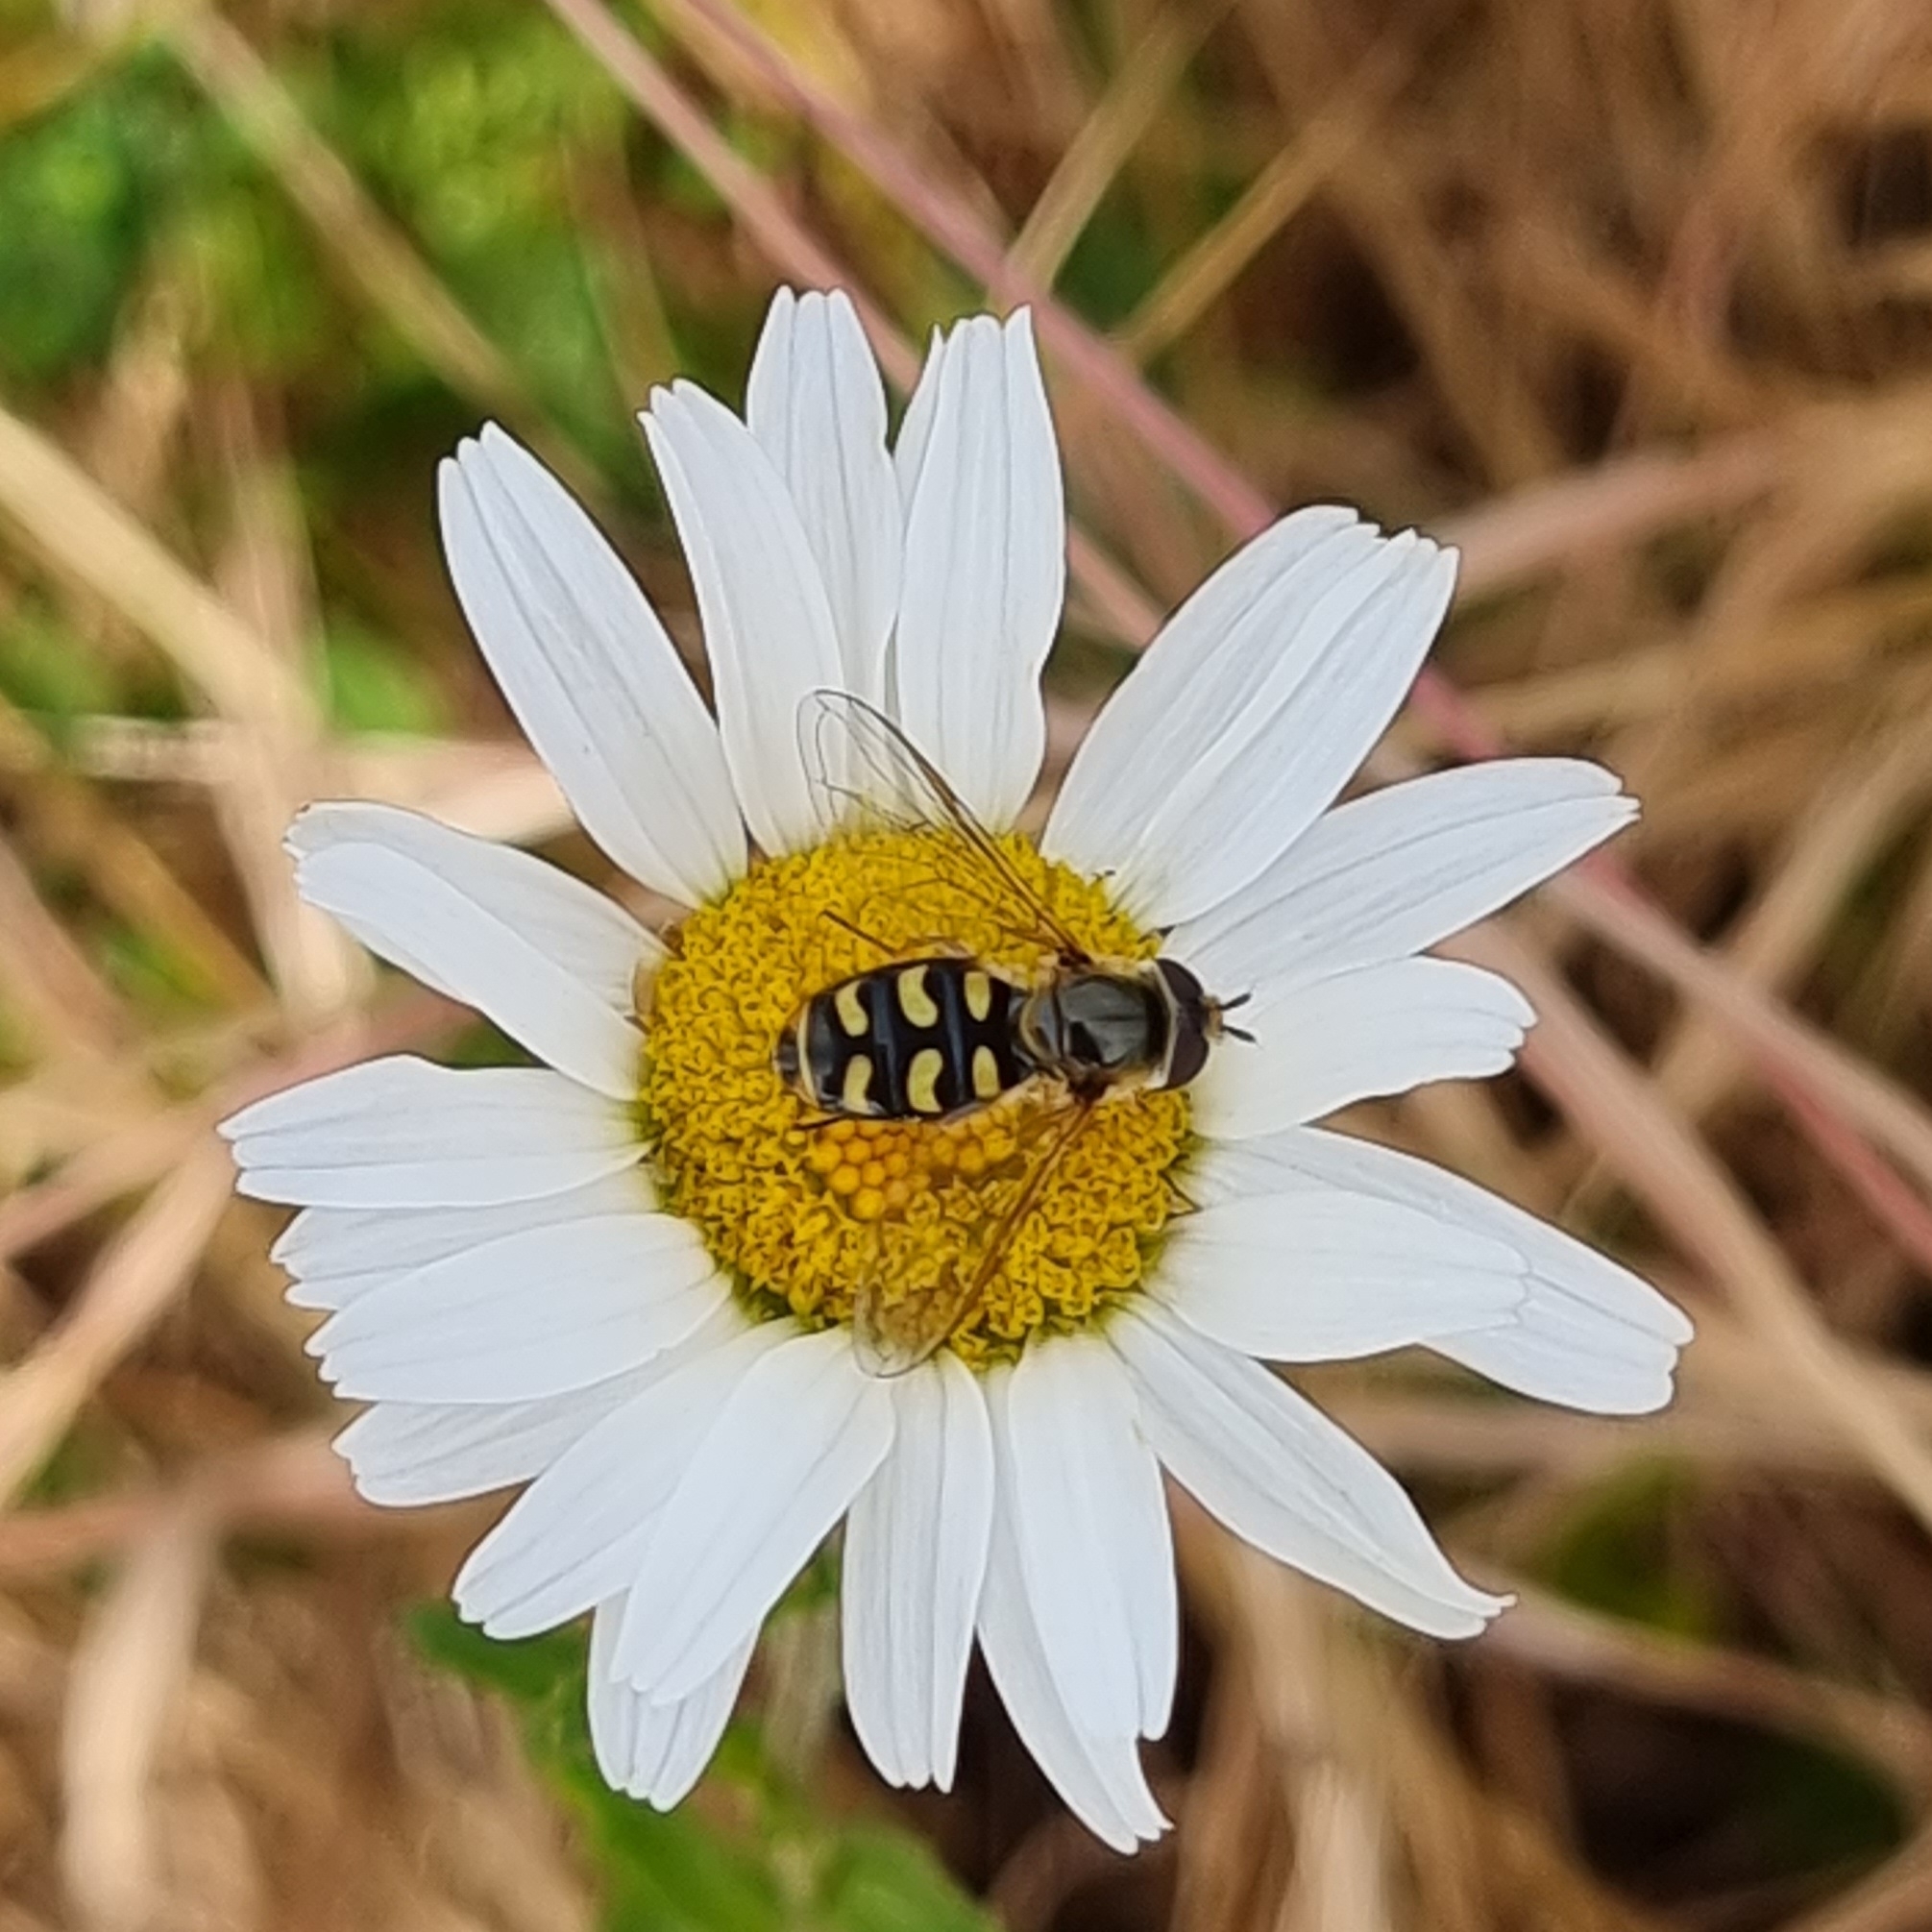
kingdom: Animalia
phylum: Arthropoda
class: Insecta
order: Diptera
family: Syrphidae
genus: Eupeodes
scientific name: Eupeodes
